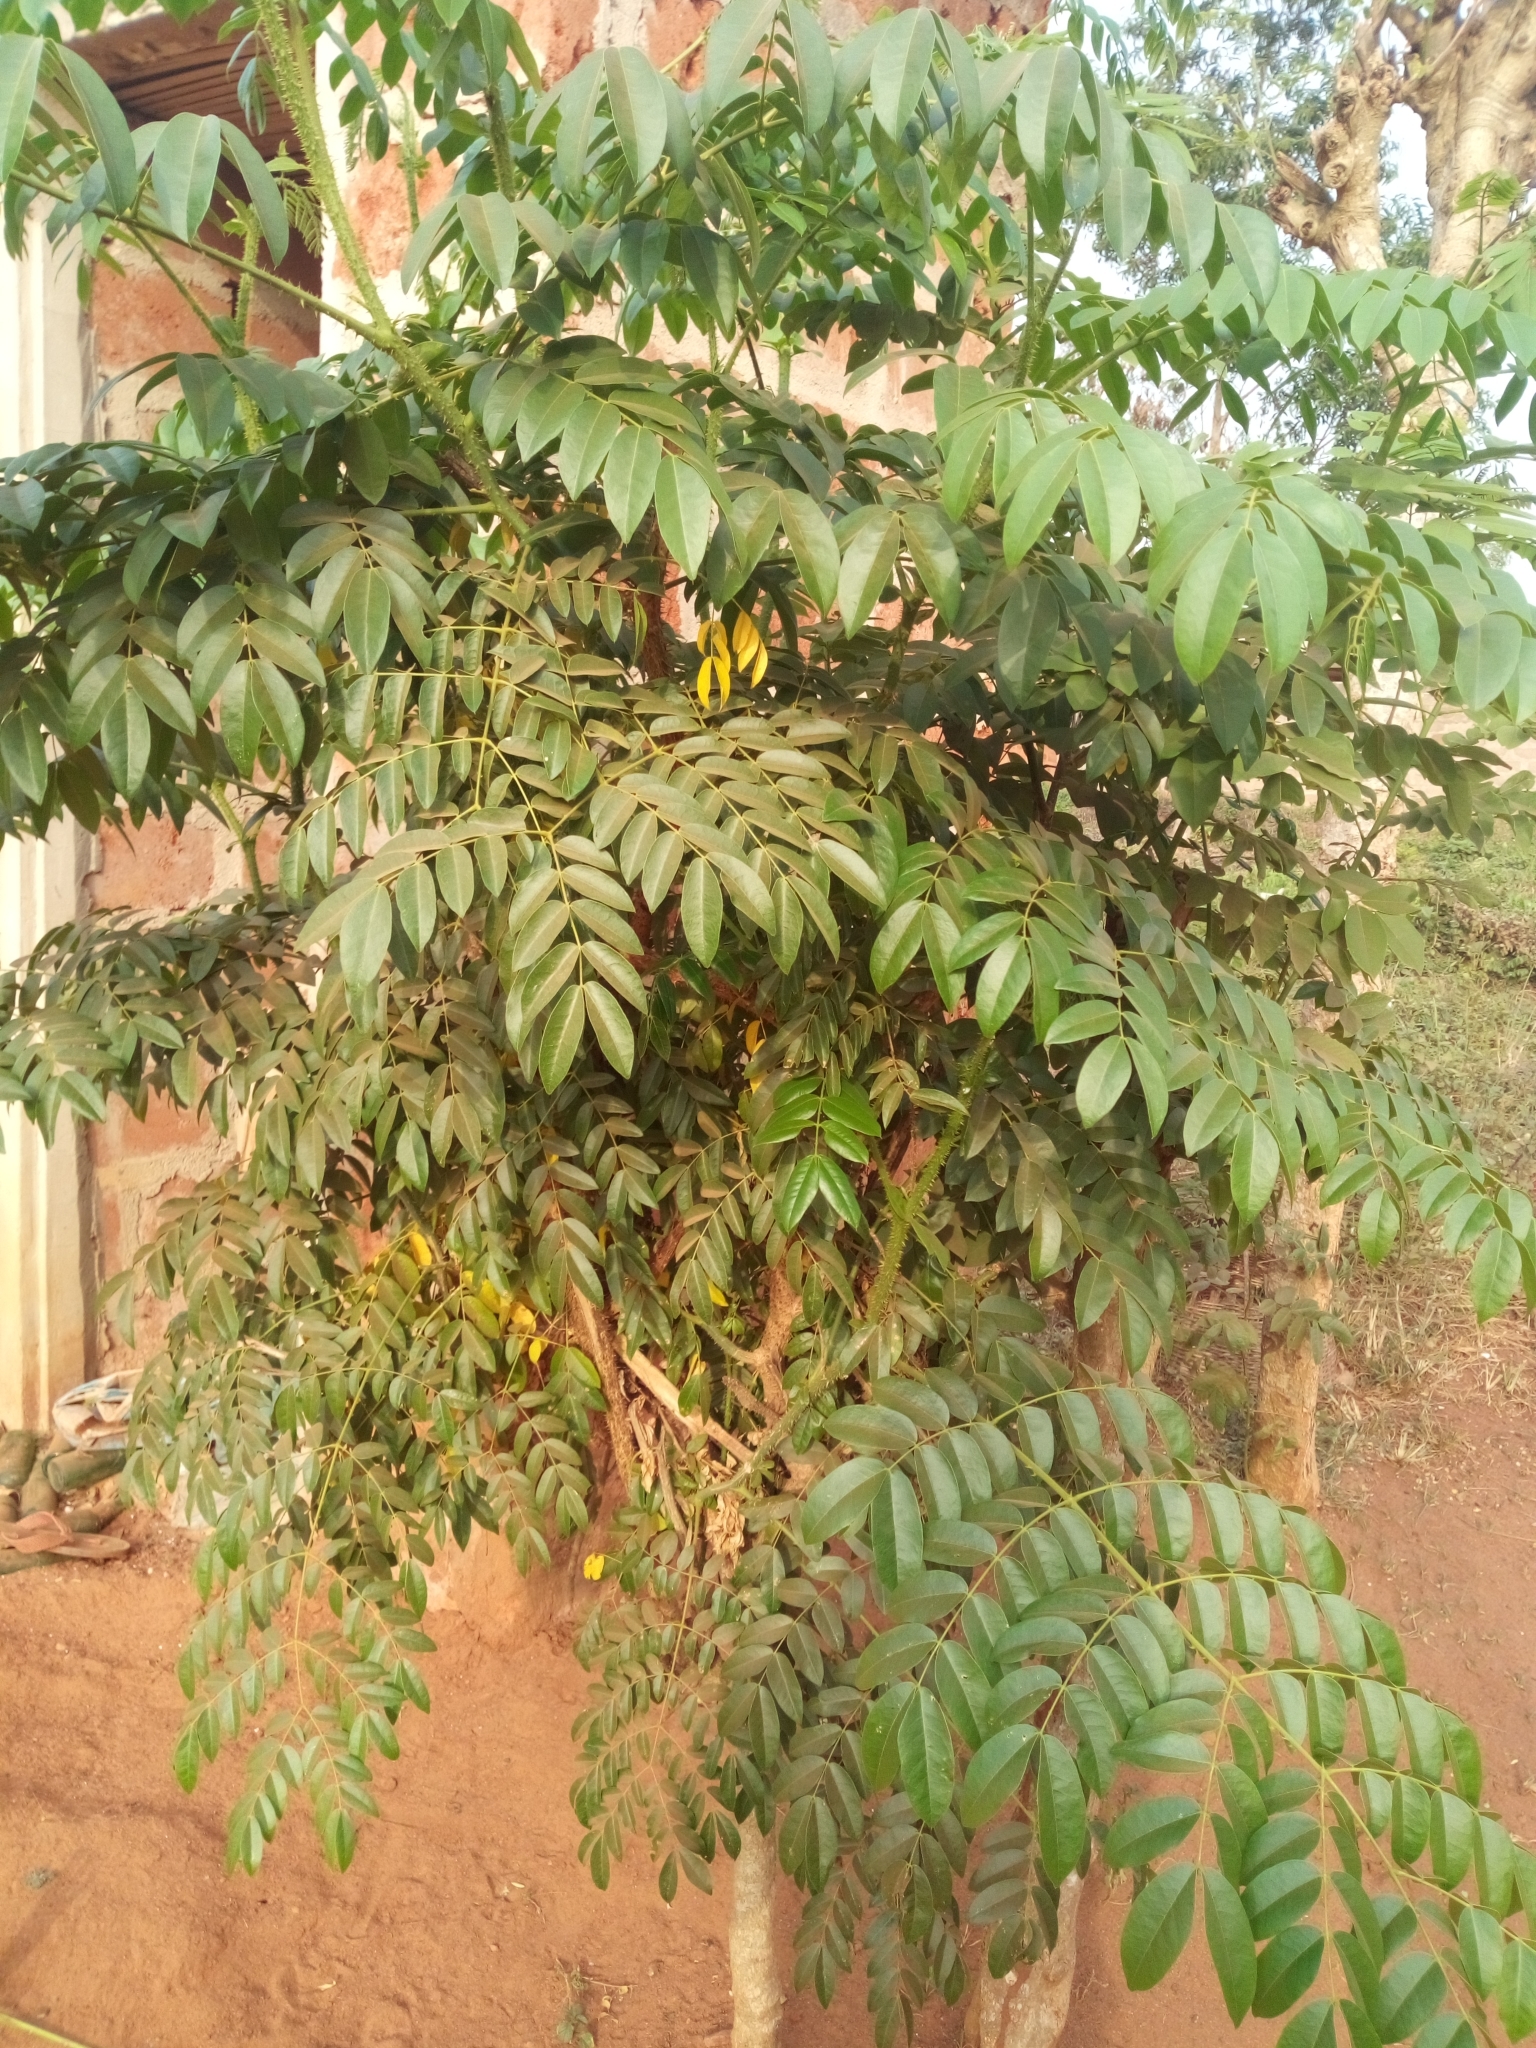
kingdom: Plantae
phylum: Tracheophyta
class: Magnoliopsida
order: Fabales
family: Fabaceae
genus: Guilandina
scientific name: Guilandina bonduc
